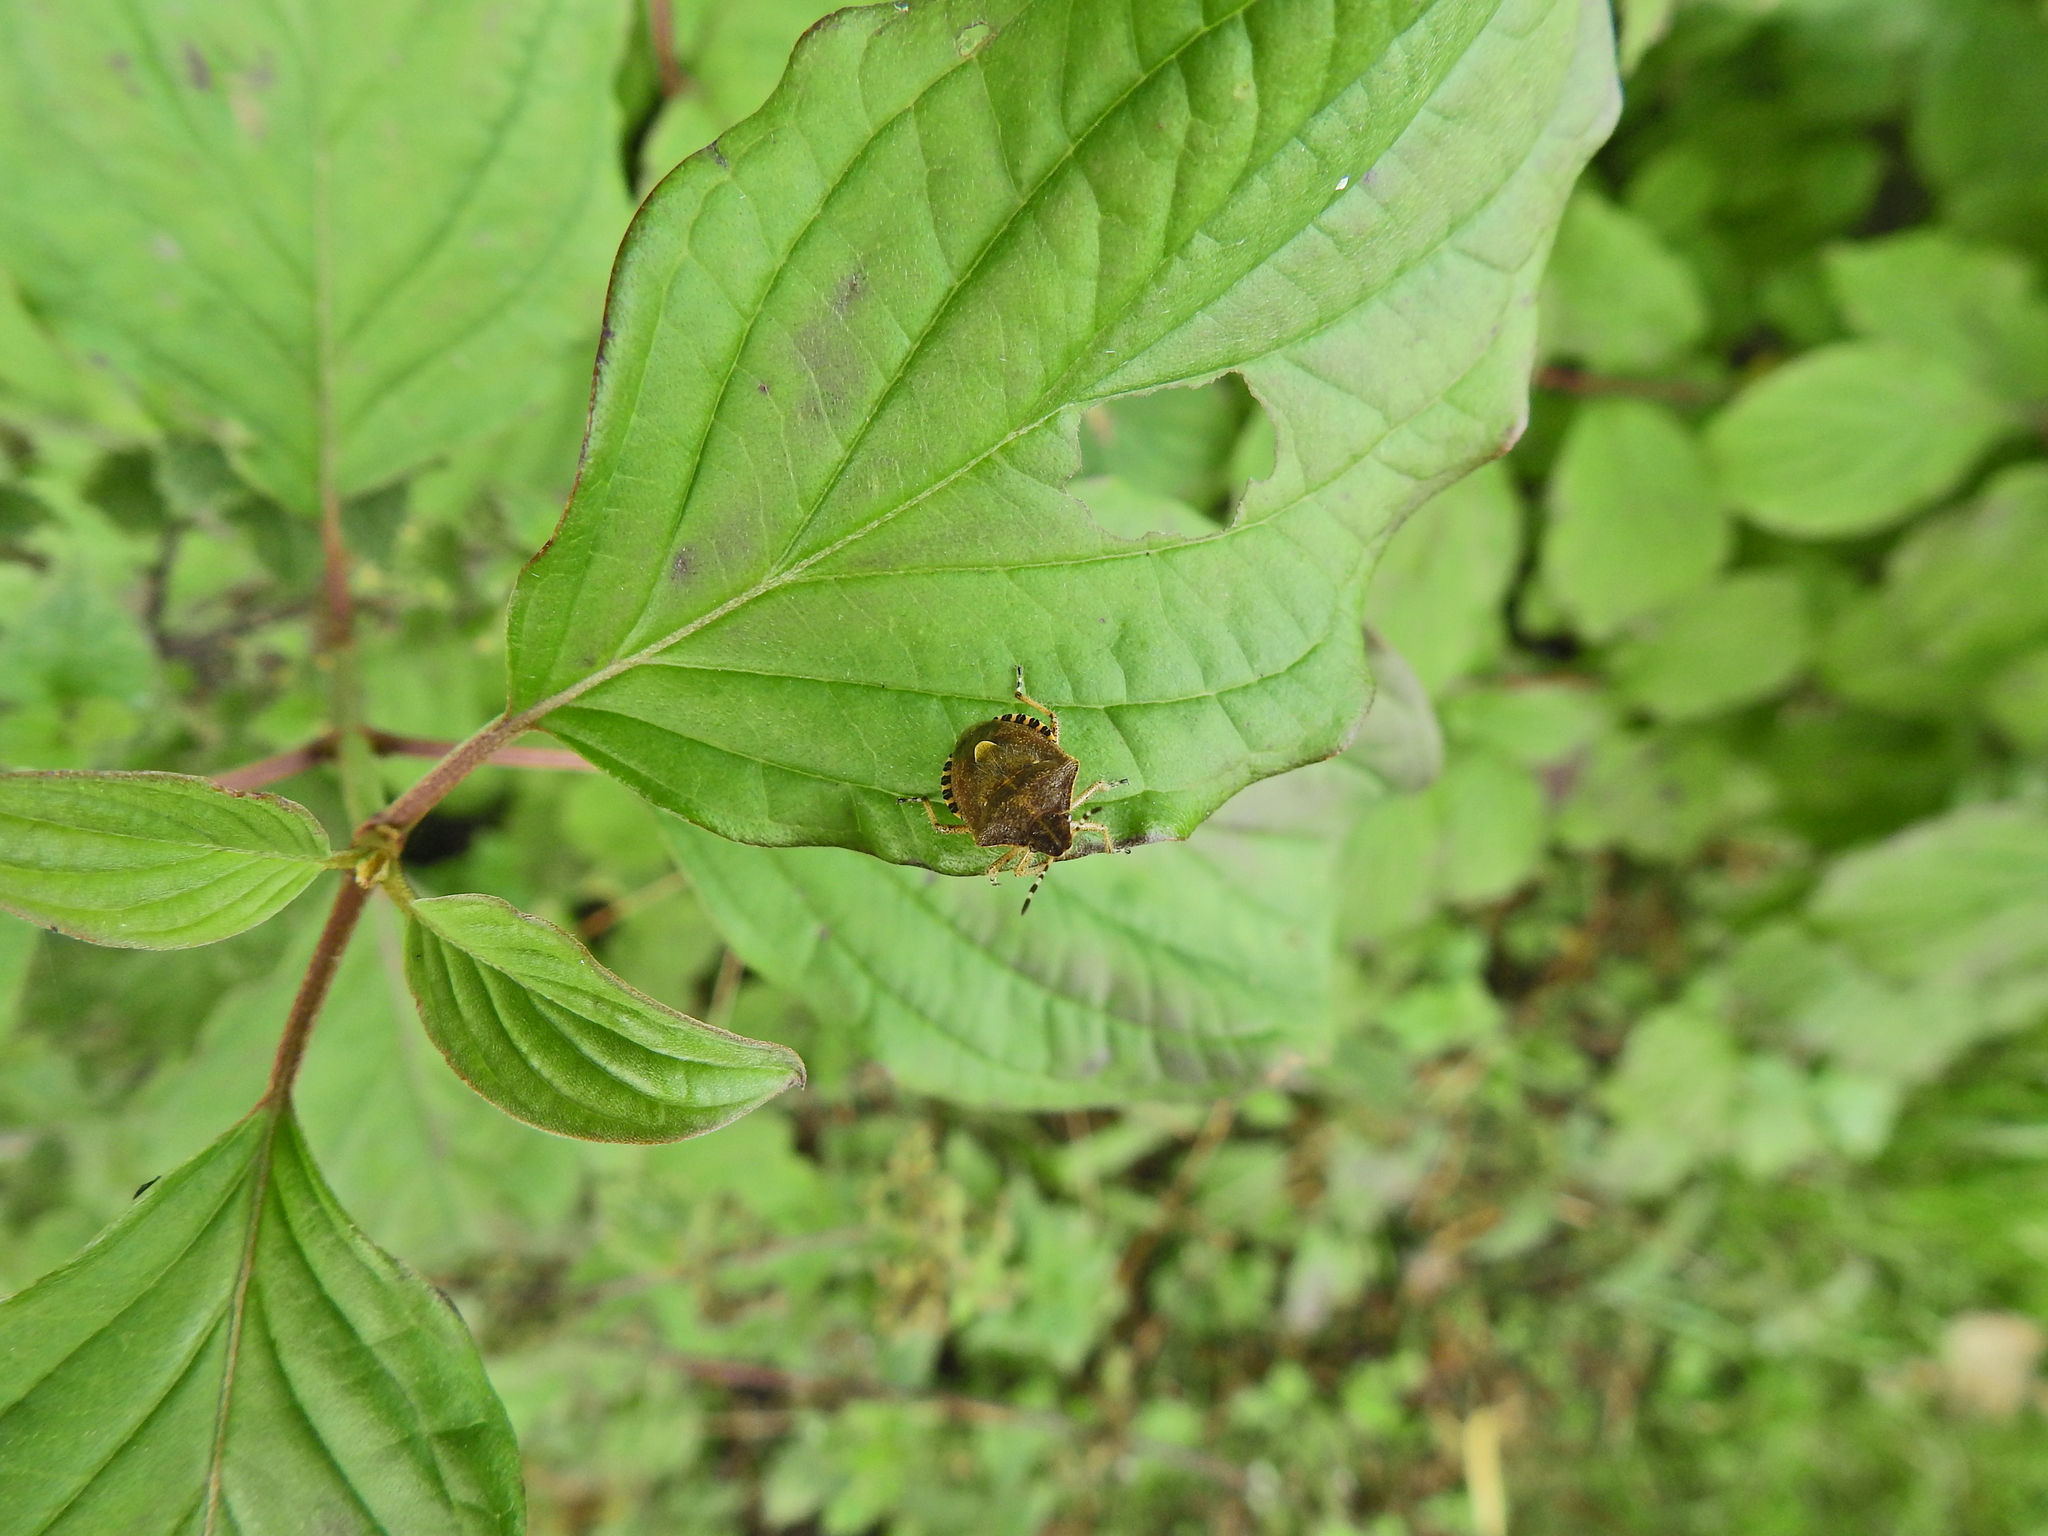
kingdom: Animalia
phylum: Arthropoda
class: Insecta
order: Hemiptera
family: Pentatomidae
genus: Dolycoris
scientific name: Dolycoris baccarum
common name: Sloe bug
